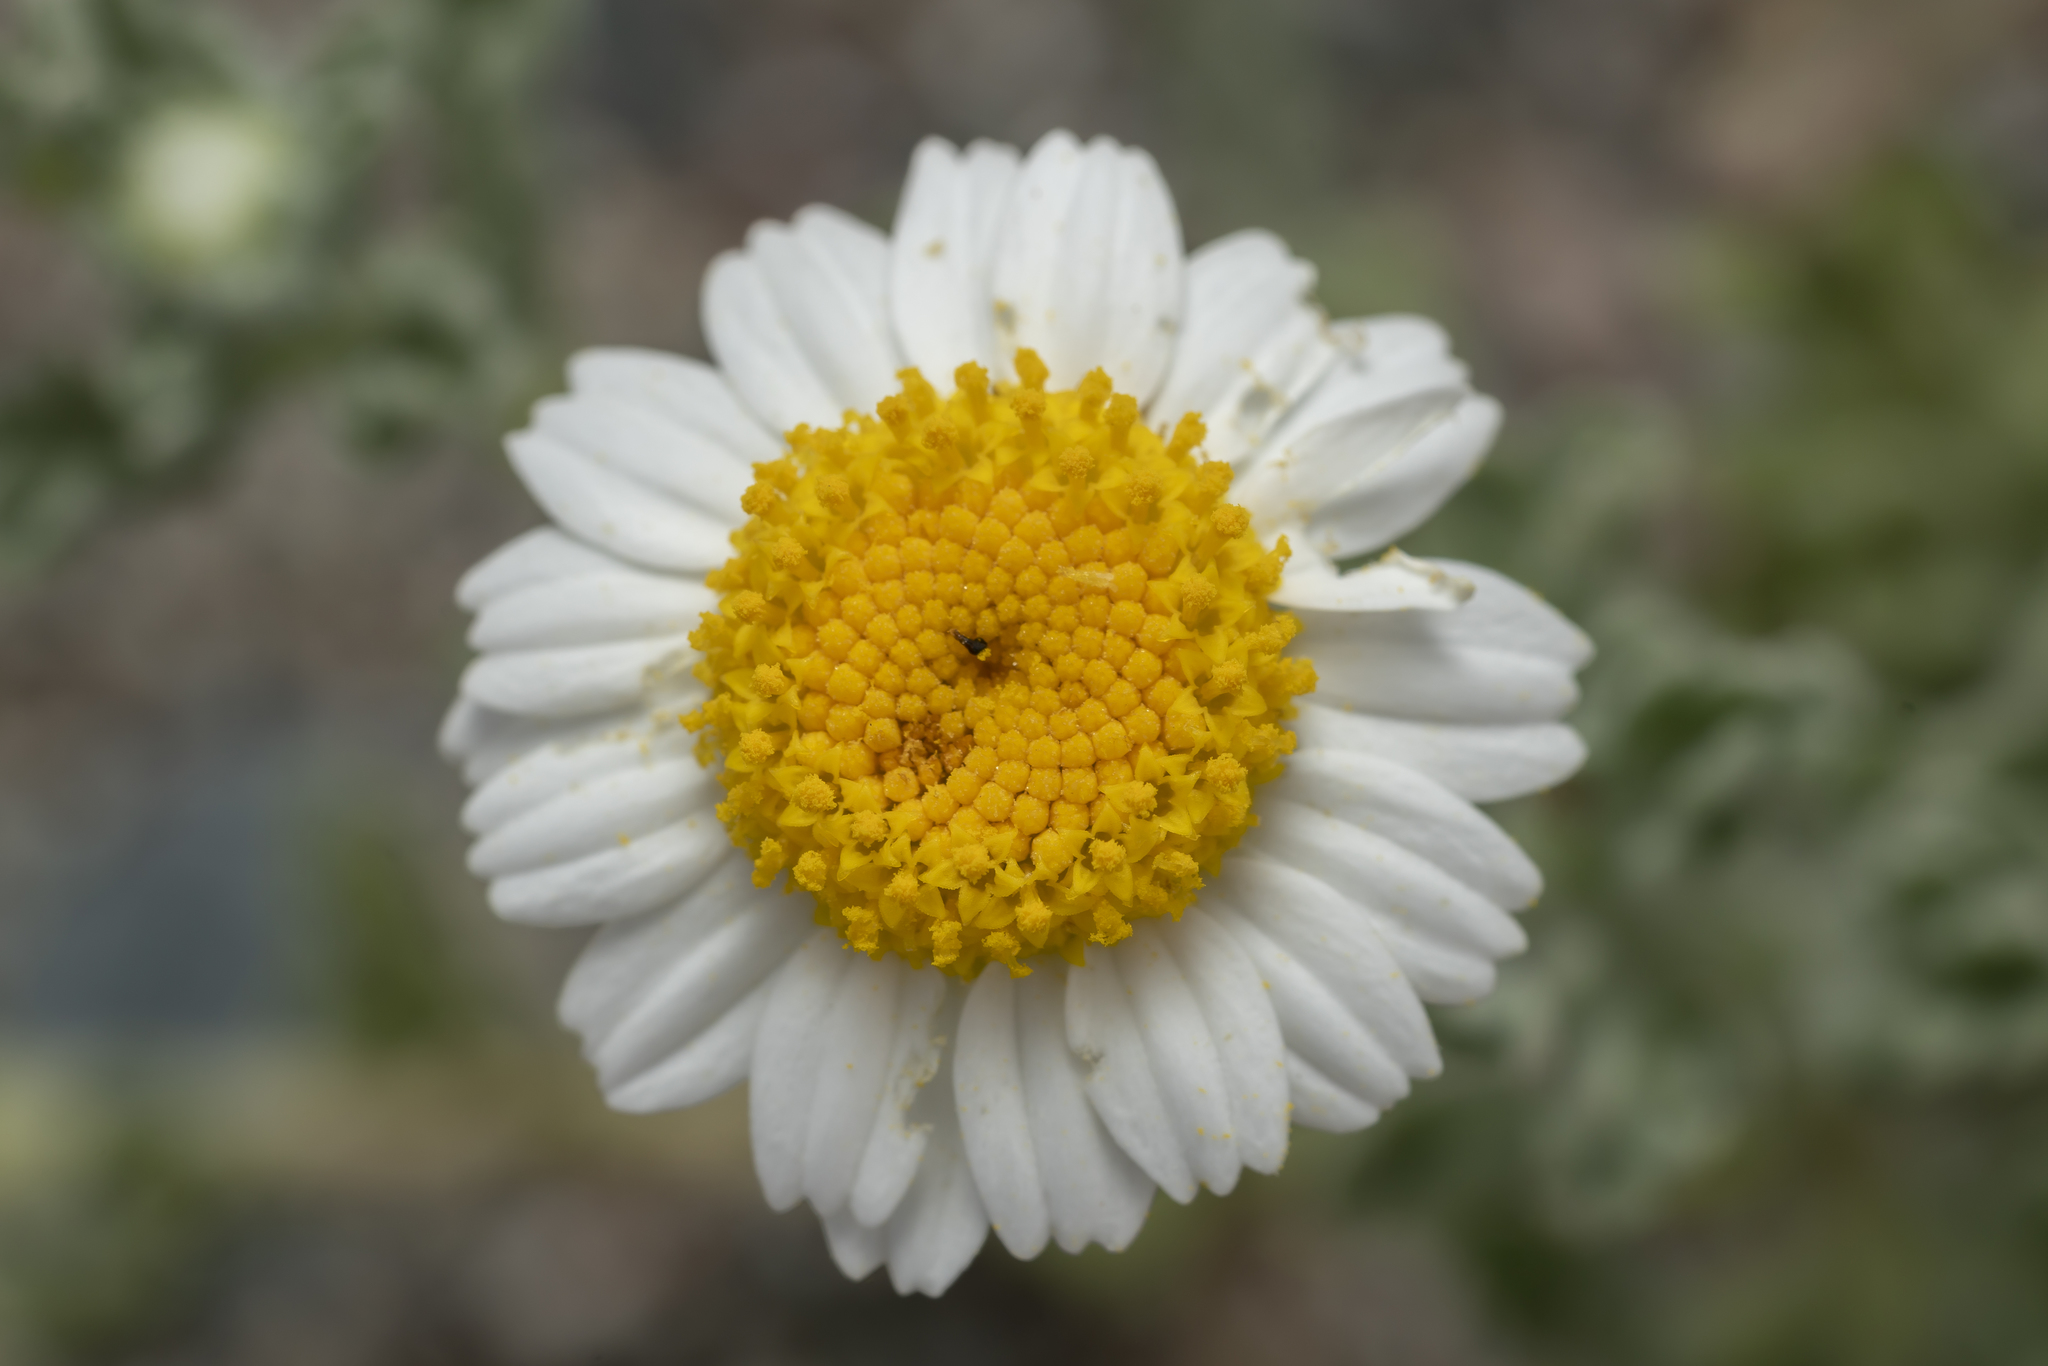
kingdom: Plantae
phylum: Tracheophyta
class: Magnoliopsida
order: Asterales
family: Asteraceae
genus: Anthemis
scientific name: Anthemis tomentosa
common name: Woolly chamomile
